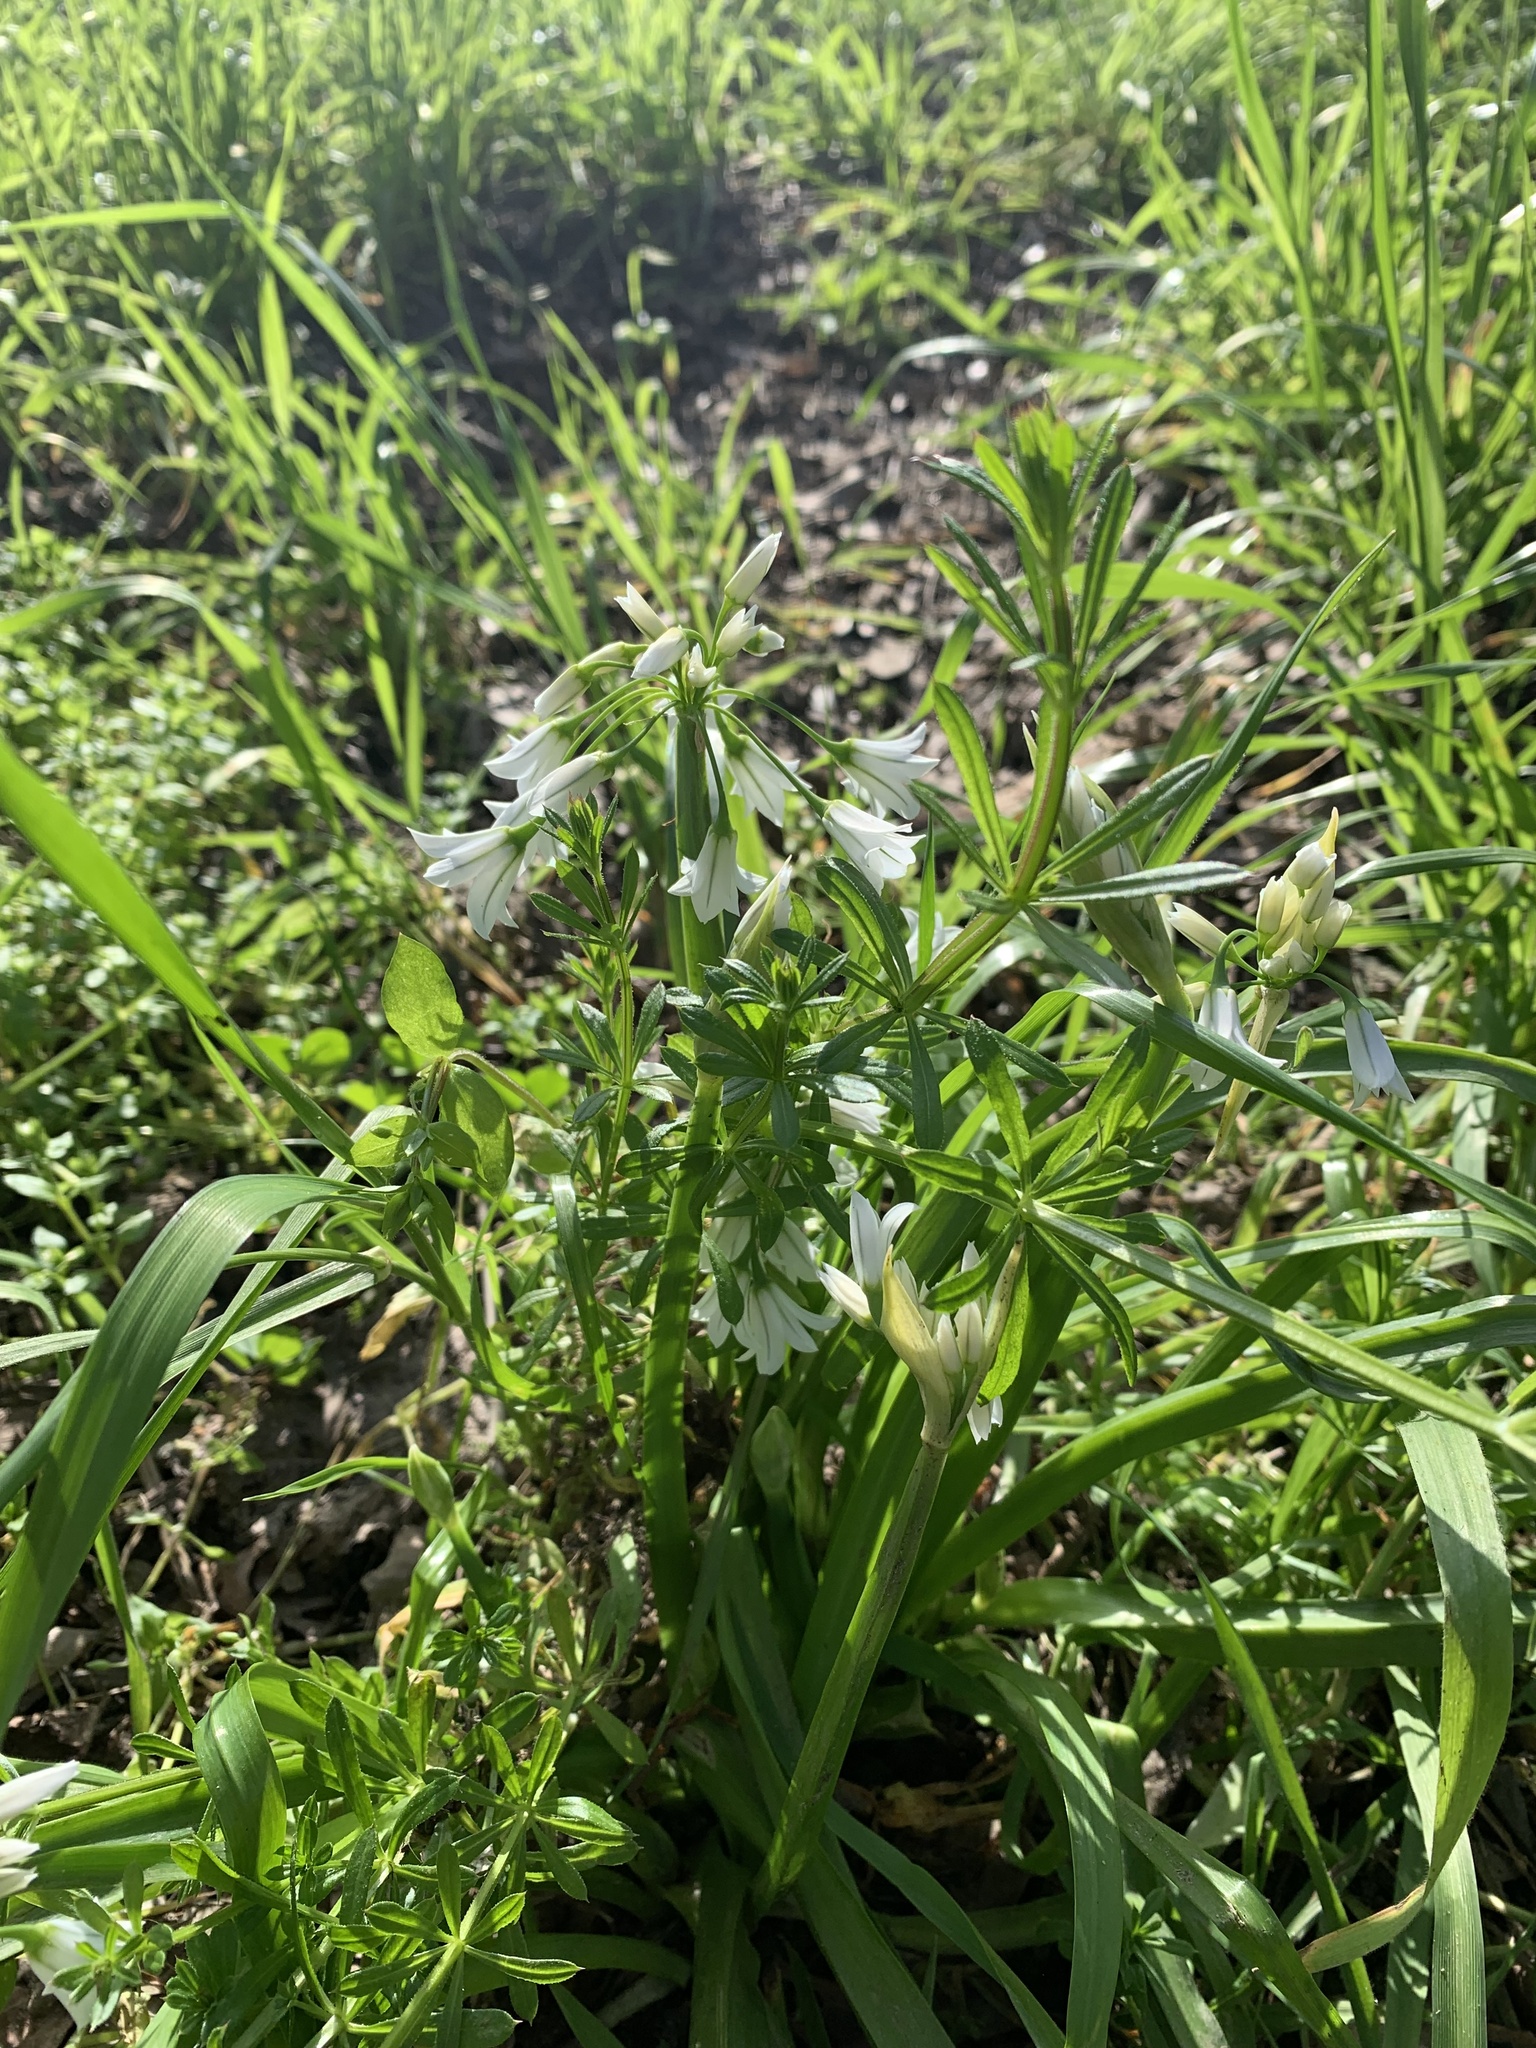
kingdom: Plantae
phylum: Tracheophyta
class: Liliopsida
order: Asparagales
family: Amaryllidaceae
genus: Allium
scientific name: Allium triquetrum
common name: Three-cornered garlic
